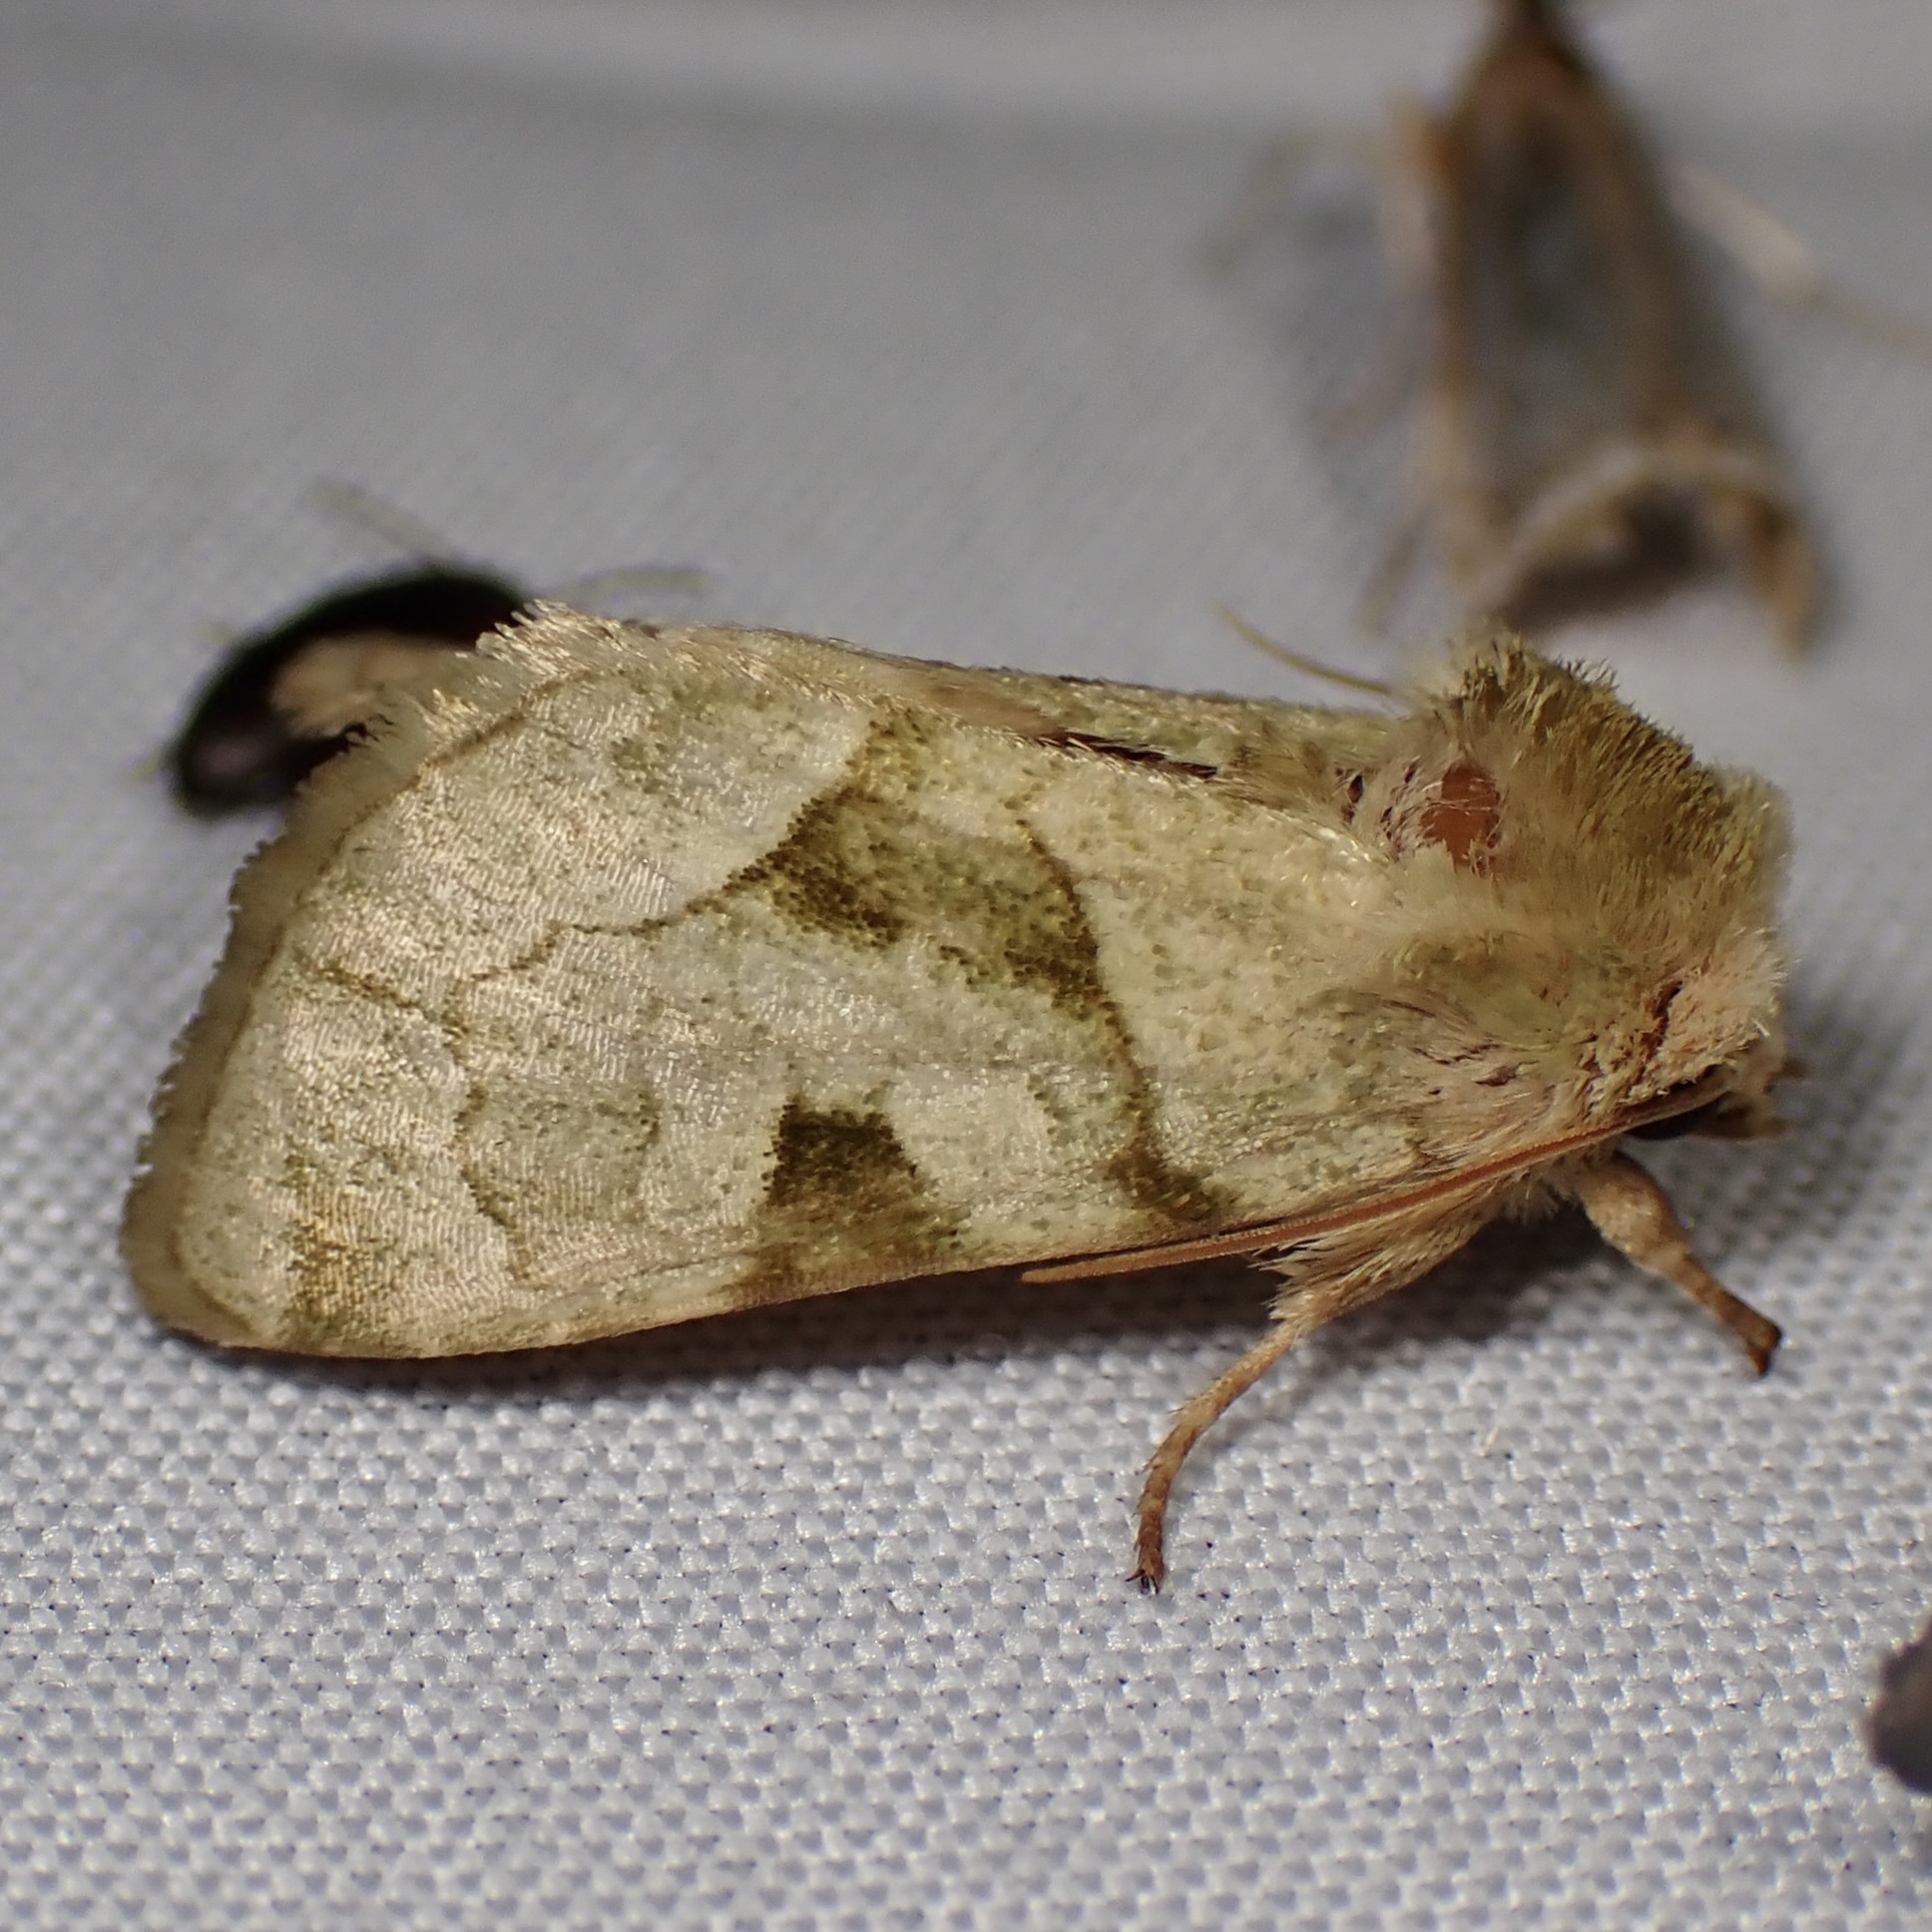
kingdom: Animalia
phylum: Arthropoda
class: Insecta
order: Lepidoptera
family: Noctuidae
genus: Oslaria
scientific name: Oslaria viridifera
